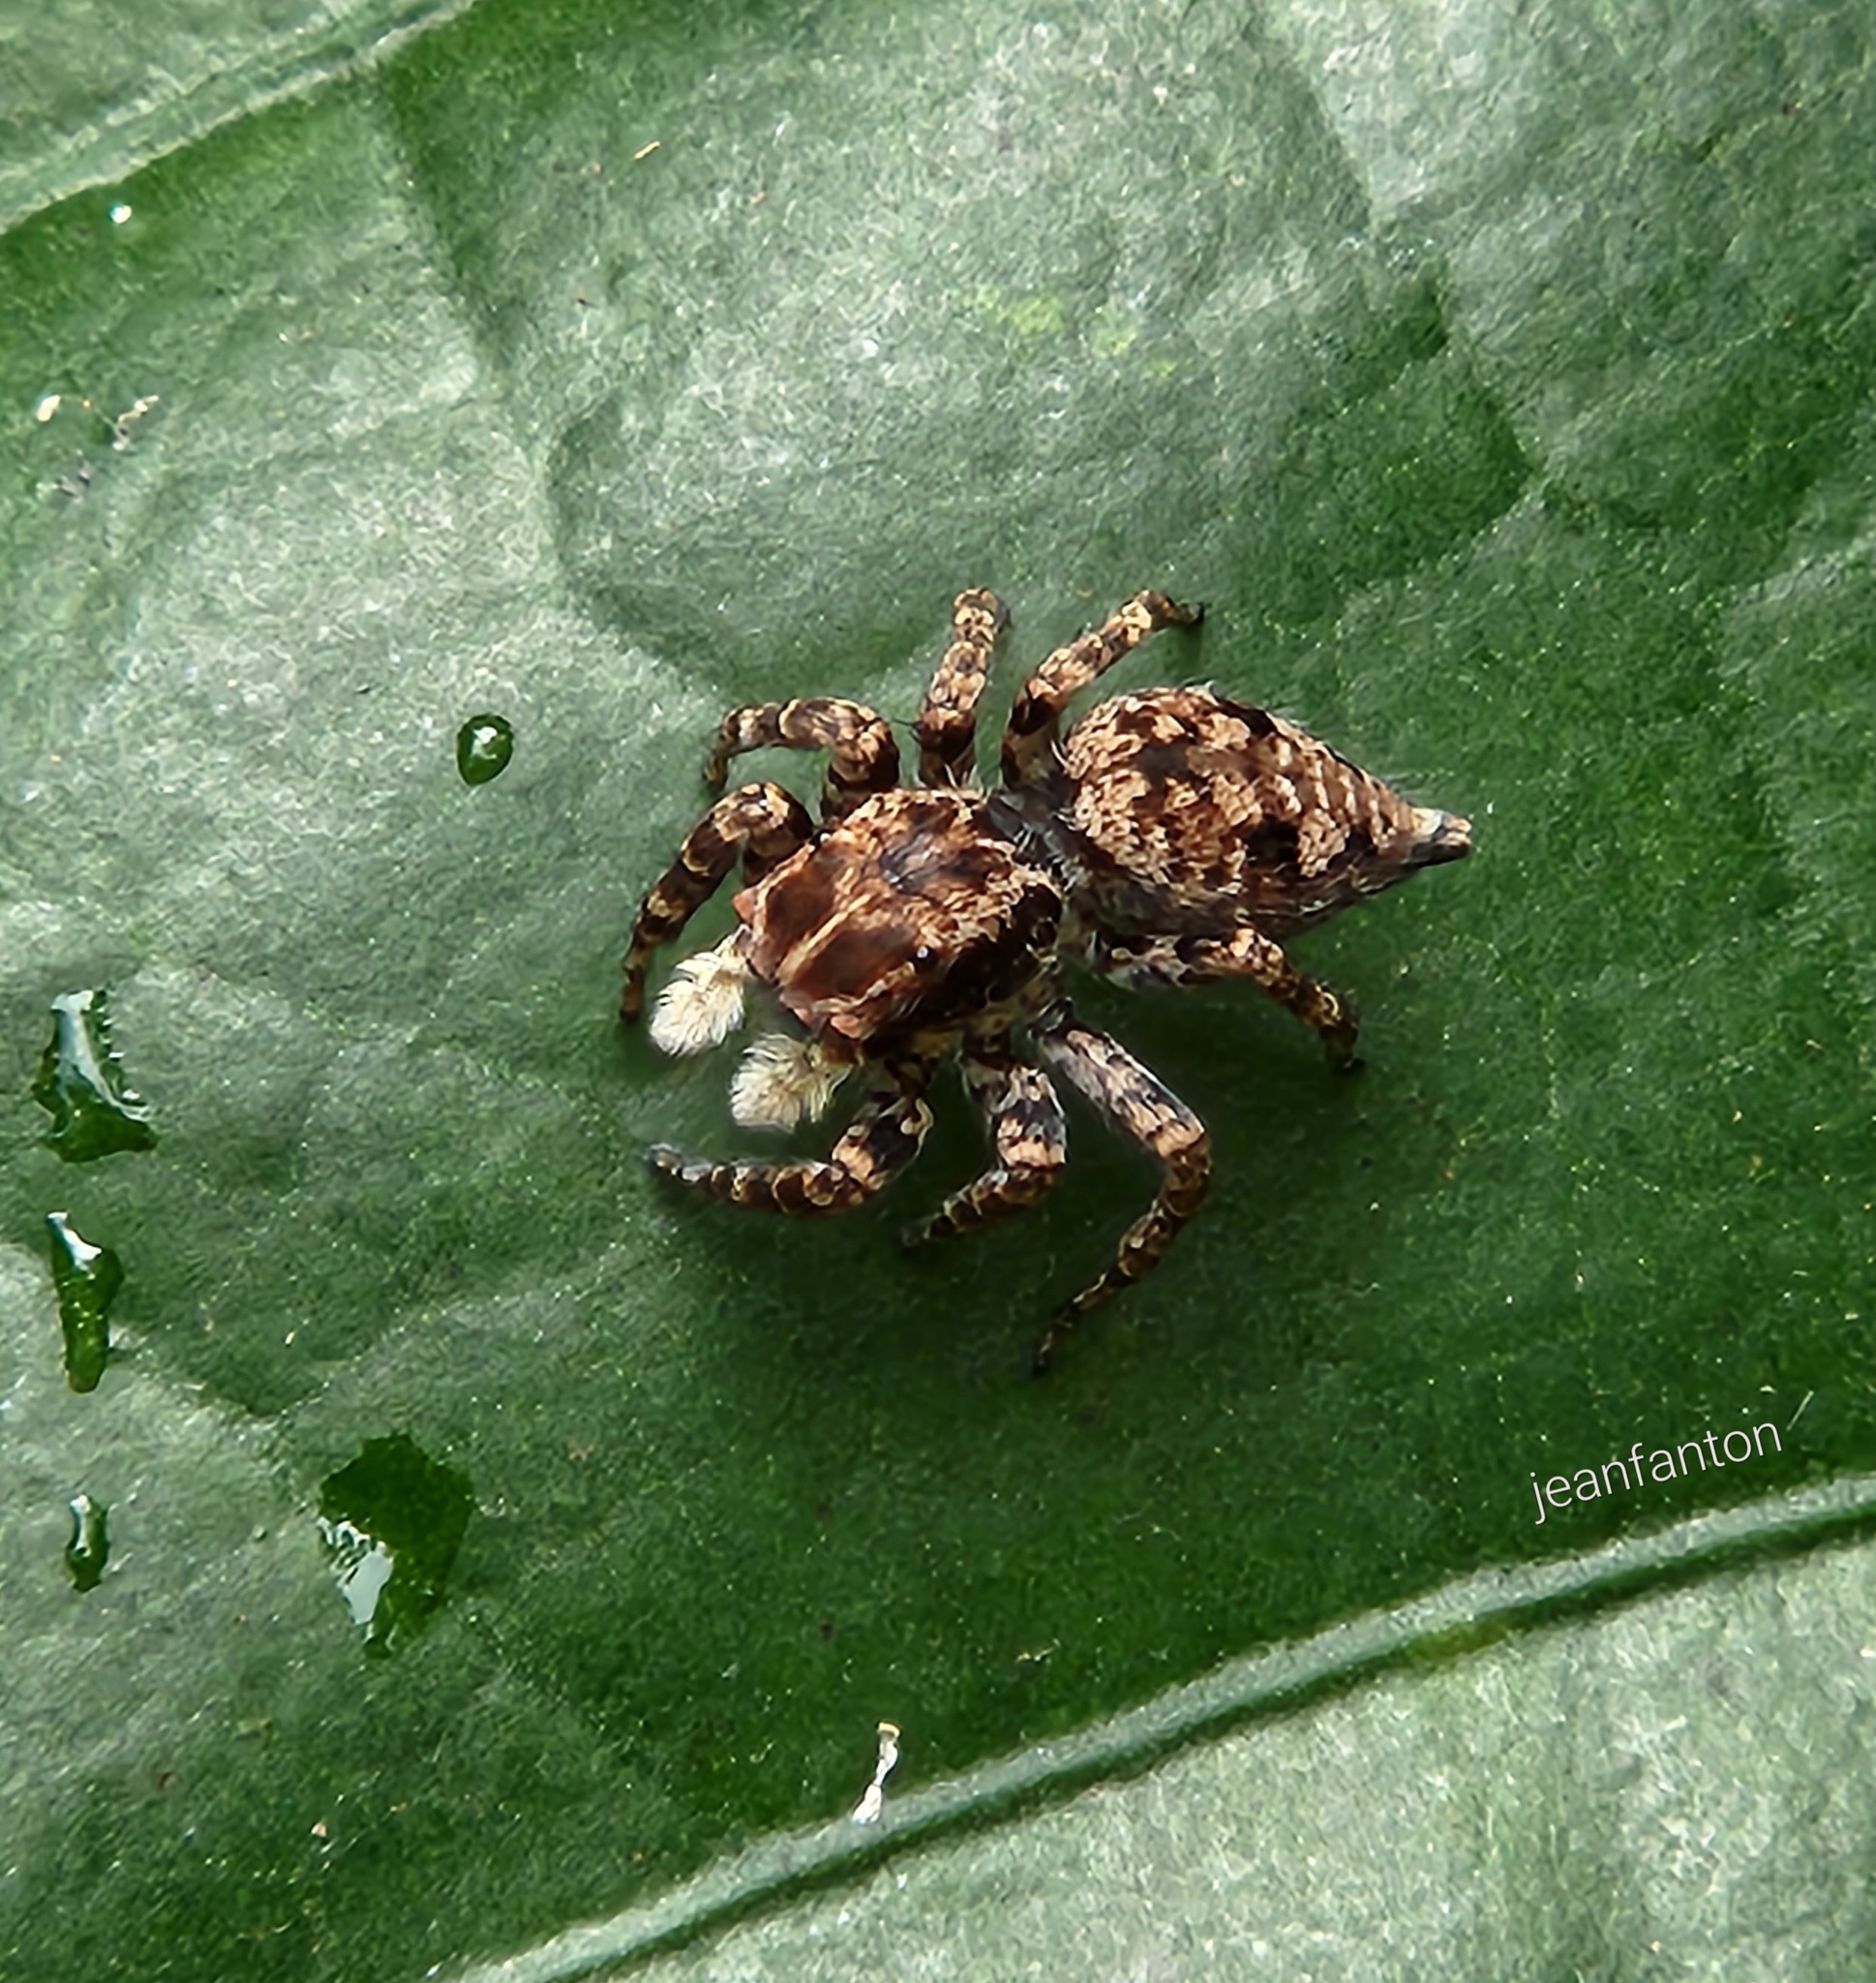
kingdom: Animalia
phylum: Arthropoda
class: Arachnida
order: Araneae
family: Salticidae
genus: Sumampattus
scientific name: Sumampattus quinqueradiatus
